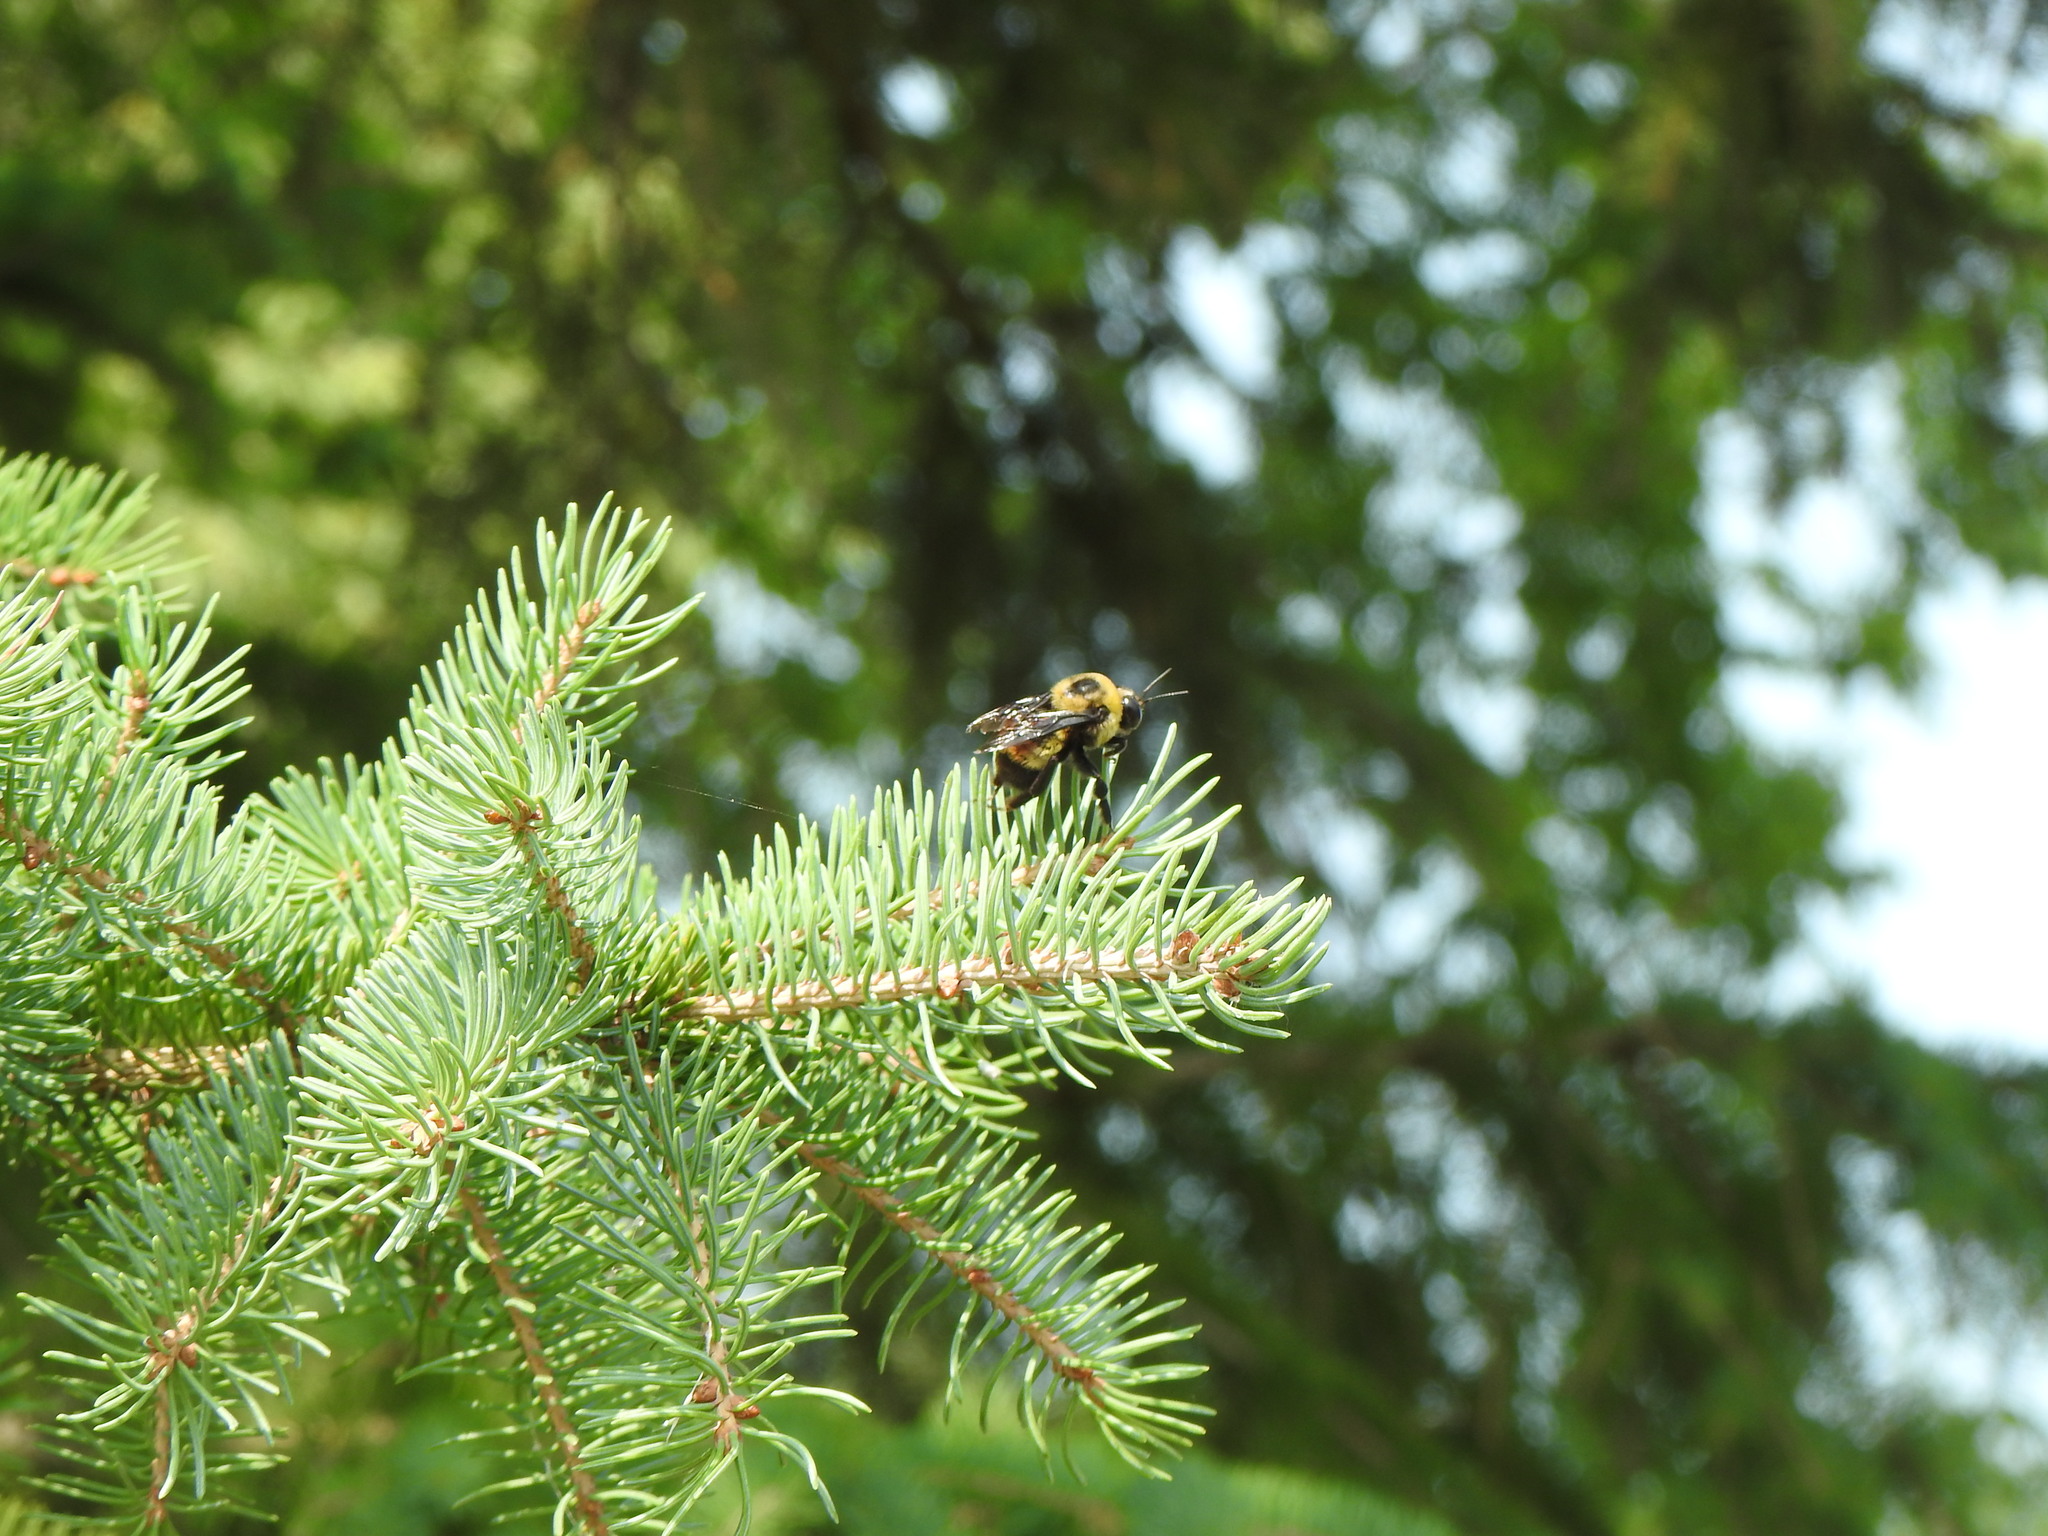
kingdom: Animalia
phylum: Arthropoda
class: Insecta
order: Hymenoptera
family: Apidae
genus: Bombus
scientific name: Bombus auricomus
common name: Black and gold bumble bee
